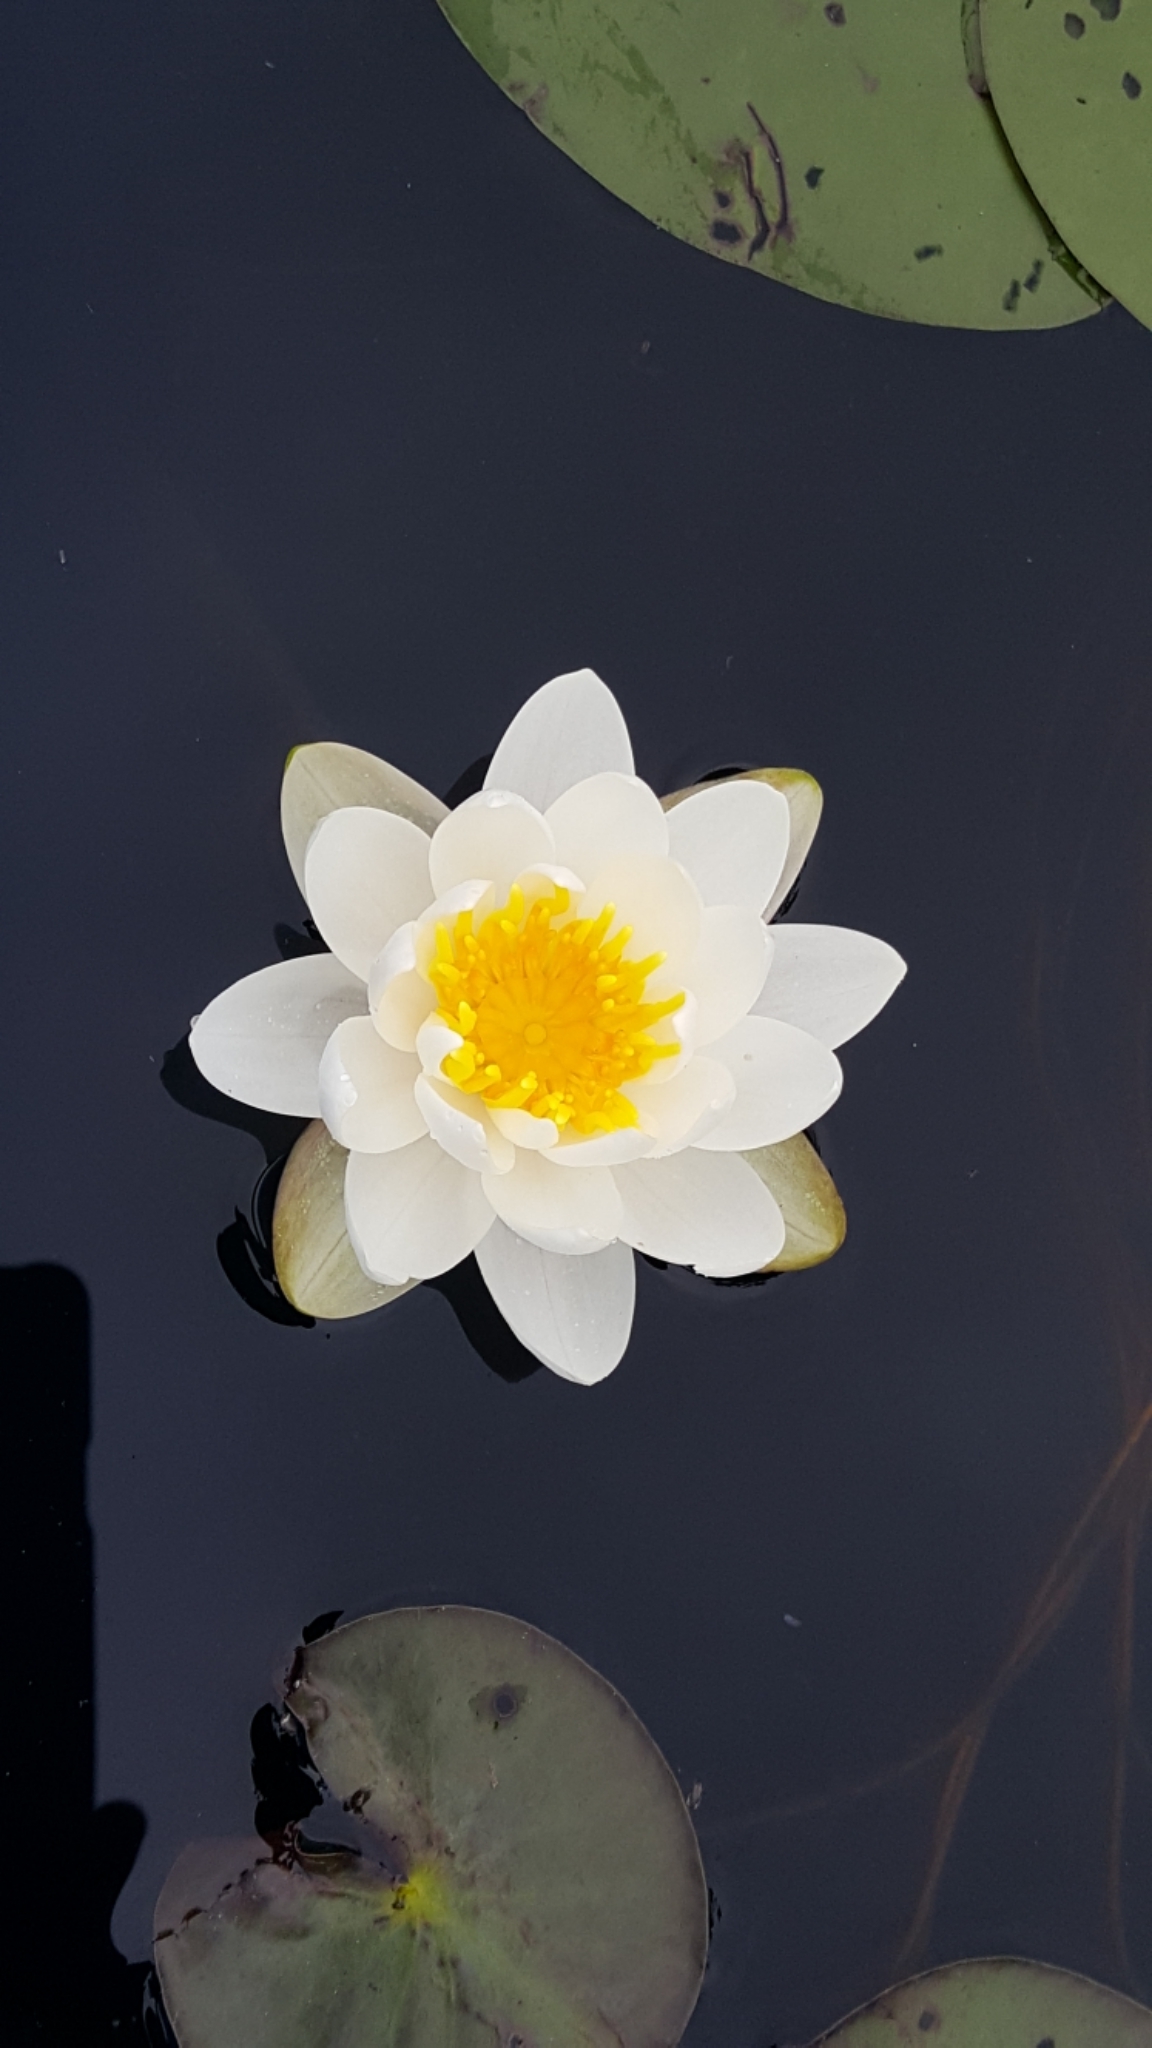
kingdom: Plantae
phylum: Tracheophyta
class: Magnoliopsida
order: Nymphaeales
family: Nymphaeaceae
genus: Nymphaea
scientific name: Nymphaea odorata
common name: Fragrant water-lily
